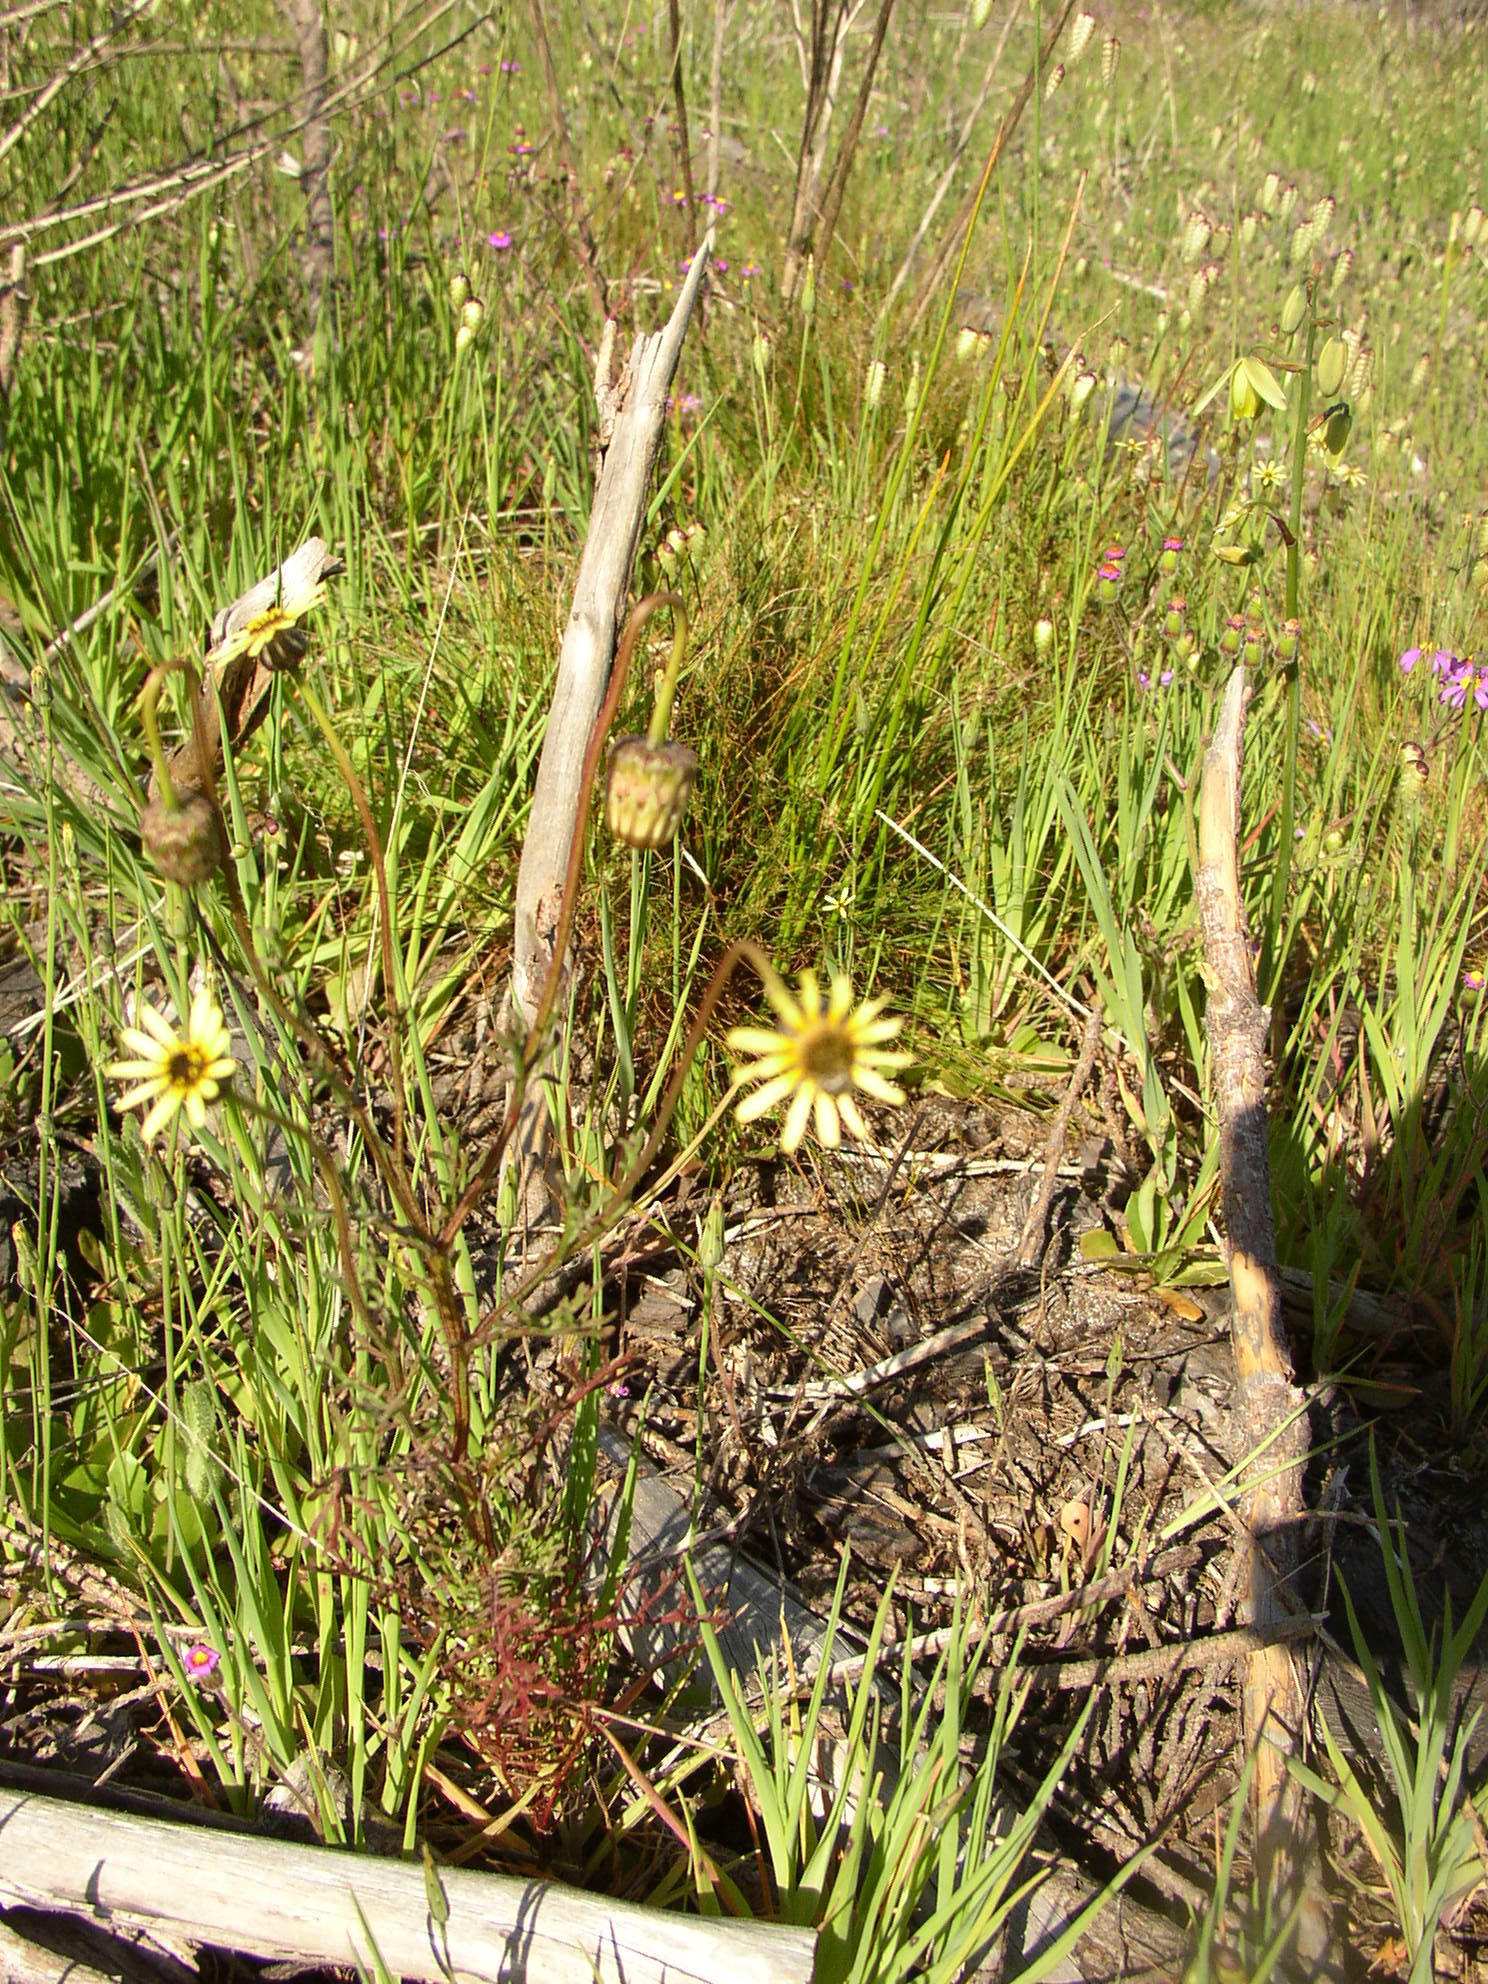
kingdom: Plantae
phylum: Tracheophyta
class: Magnoliopsida
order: Asterales
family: Asteraceae
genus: Ursinia
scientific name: Ursinia anthemoides
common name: Ursinia
